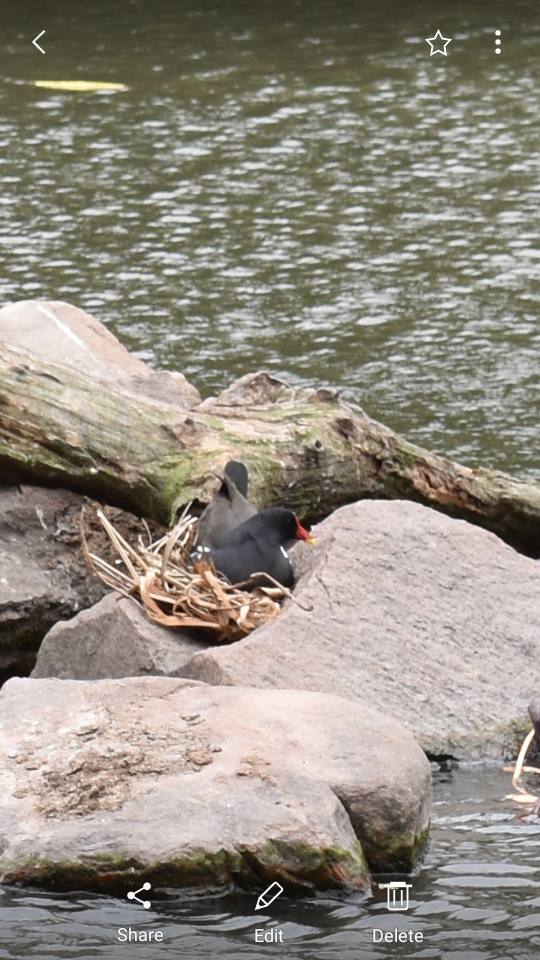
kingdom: Animalia
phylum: Chordata
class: Aves
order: Gruiformes
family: Rallidae
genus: Gallinula
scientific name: Gallinula chloropus
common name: Common moorhen
